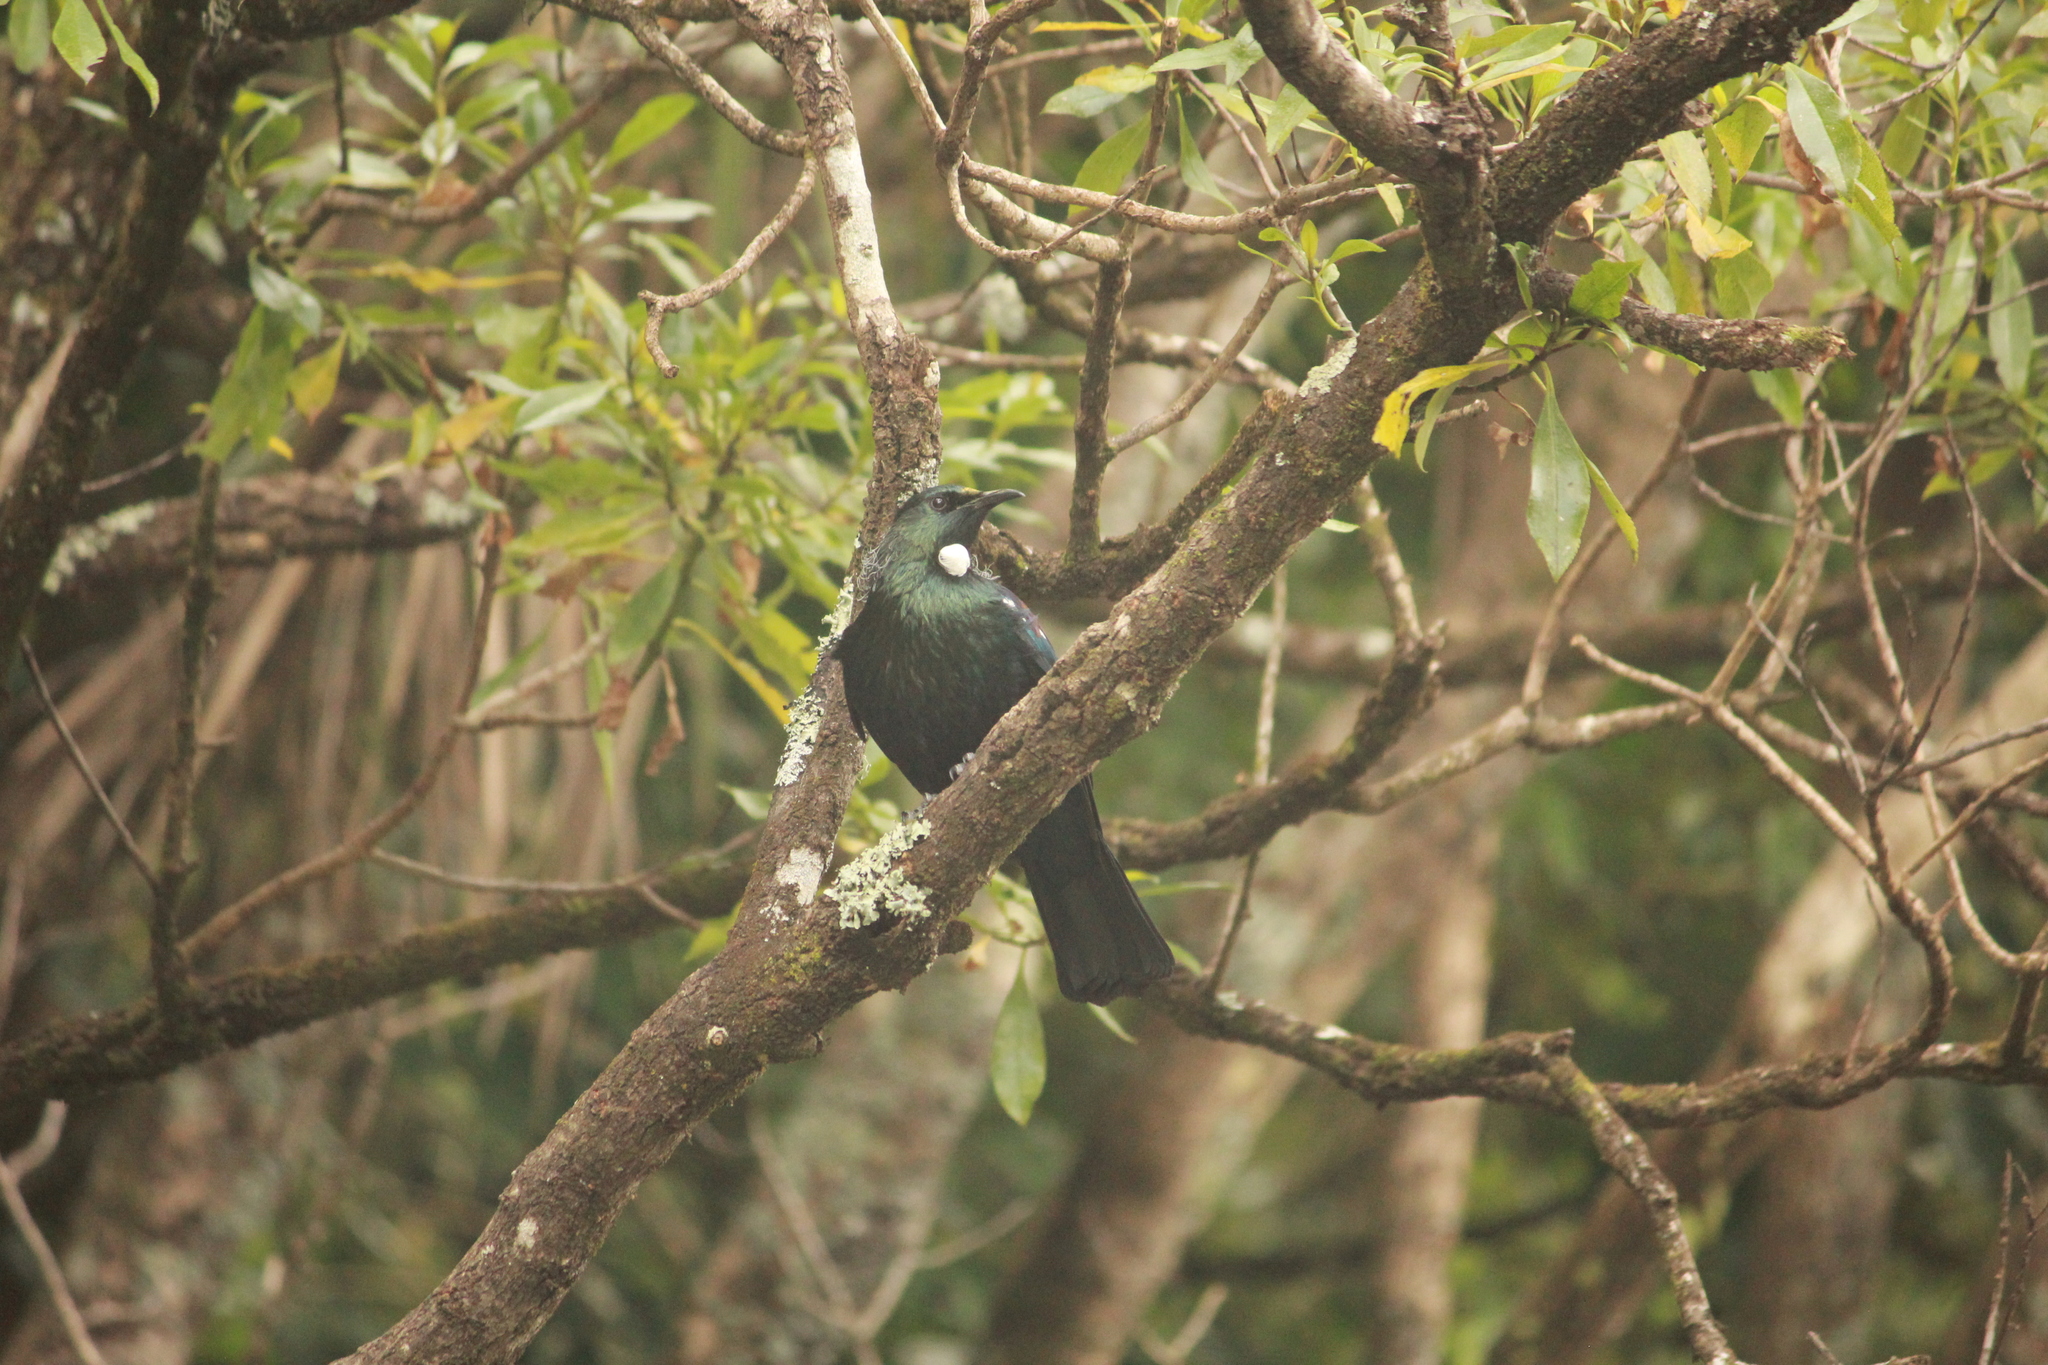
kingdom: Animalia
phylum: Chordata
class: Aves
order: Passeriformes
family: Meliphagidae
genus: Prosthemadera
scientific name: Prosthemadera novaeseelandiae
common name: Tui
